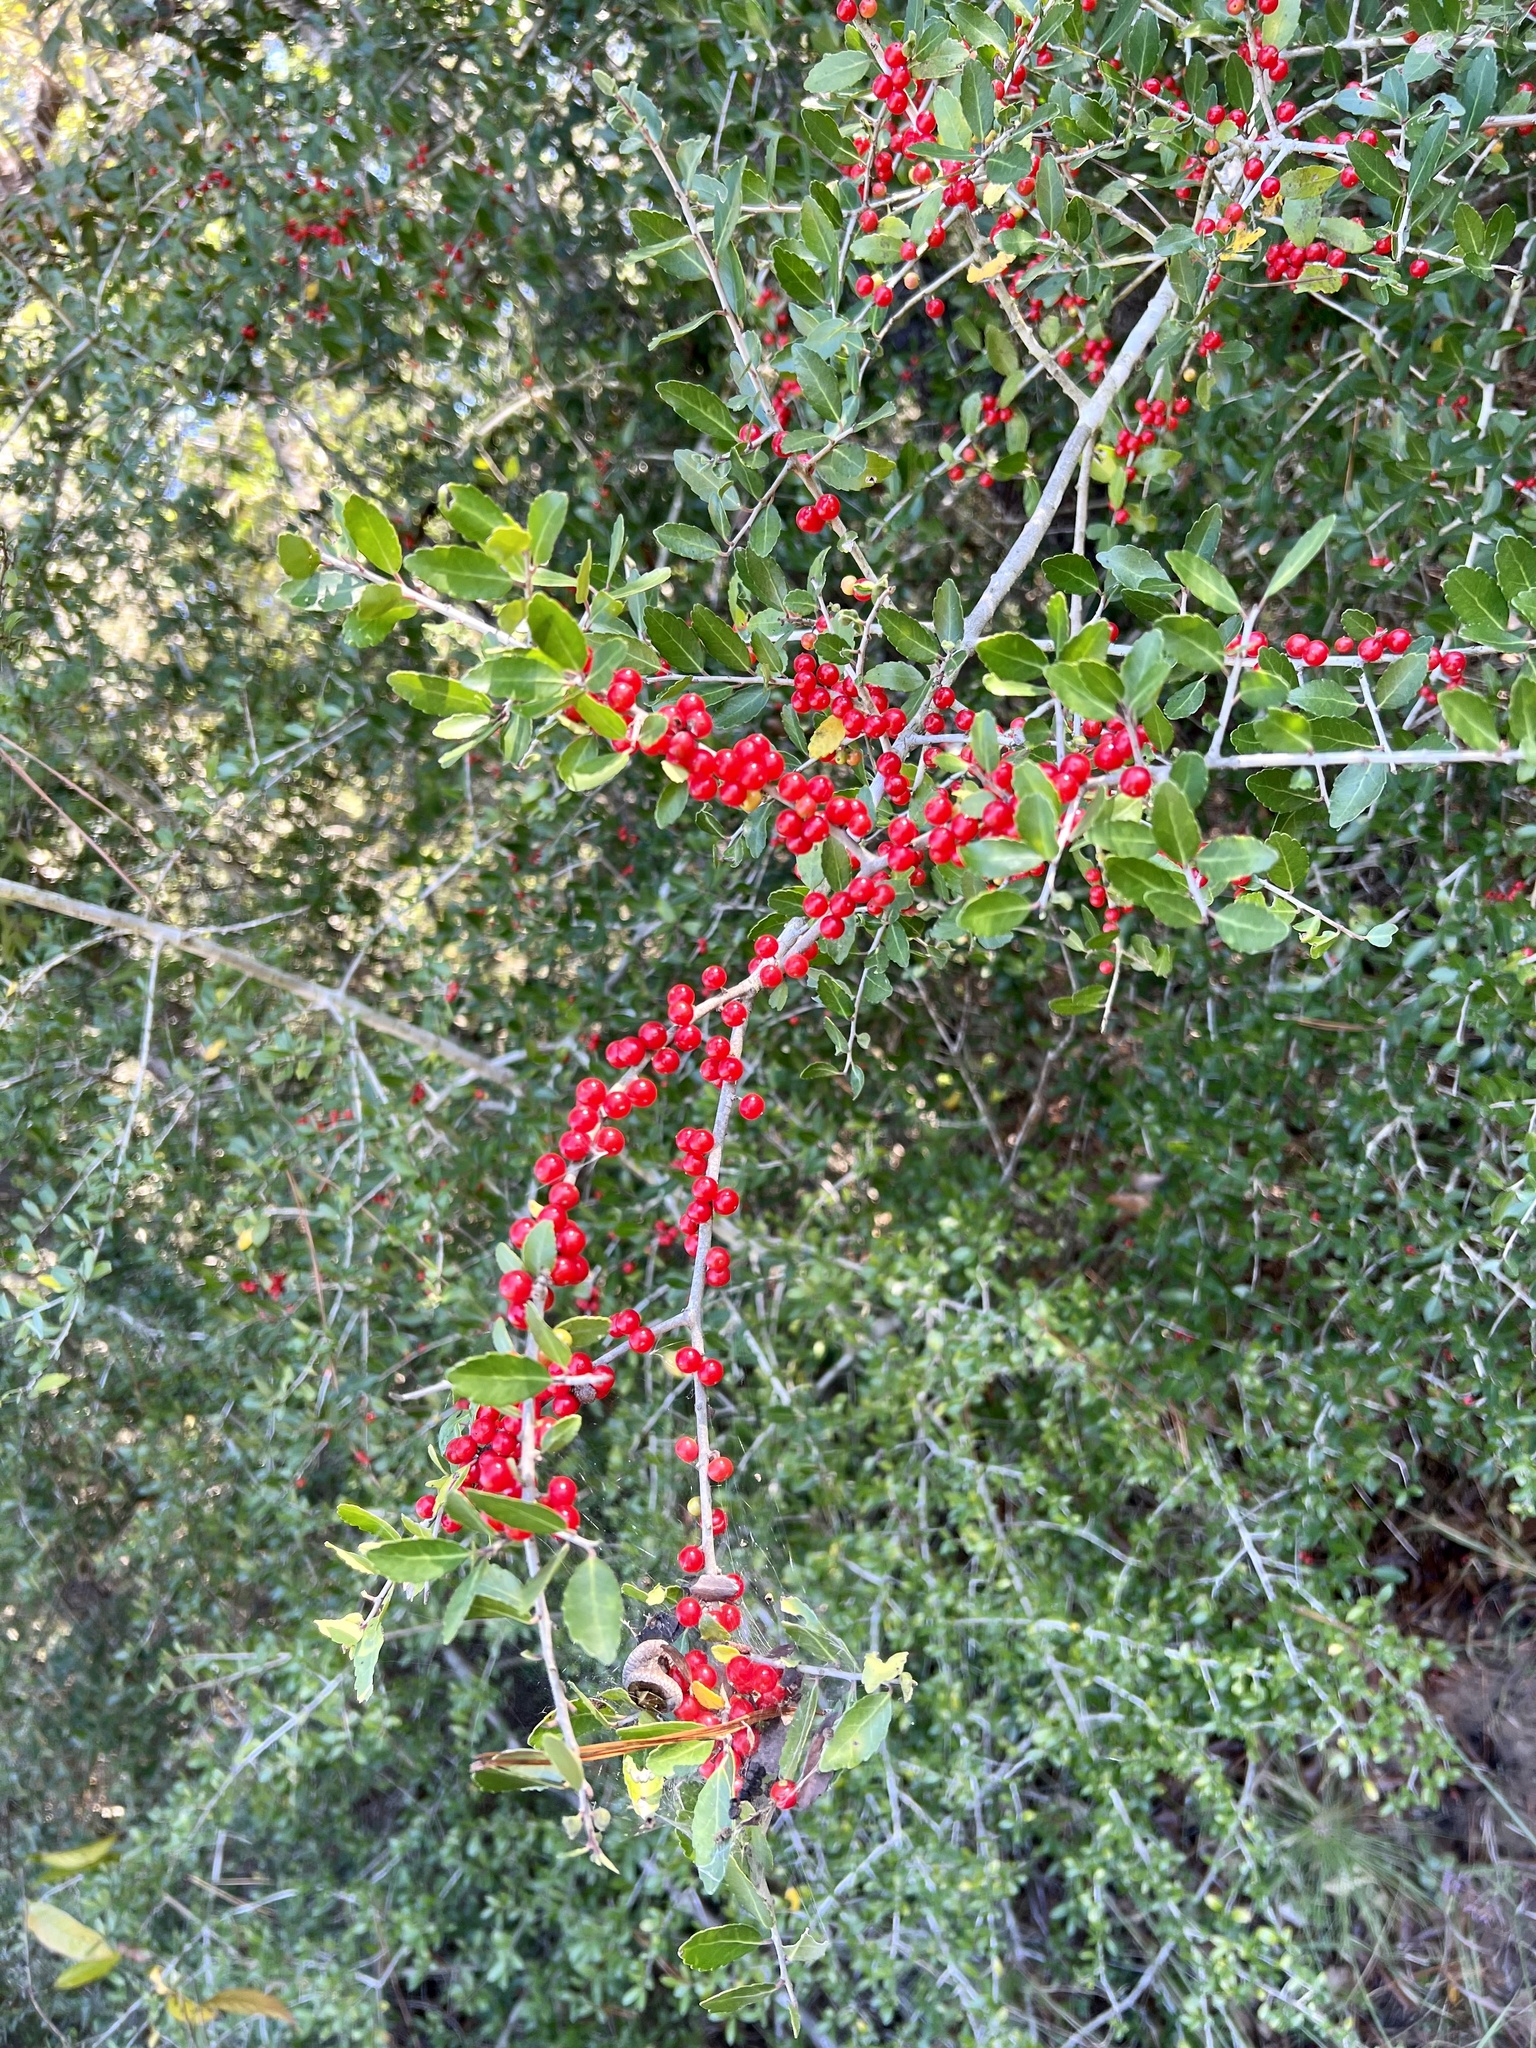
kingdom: Plantae
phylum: Tracheophyta
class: Magnoliopsida
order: Aquifoliales
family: Aquifoliaceae
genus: Ilex
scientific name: Ilex vomitoria
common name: Yaupon holly
